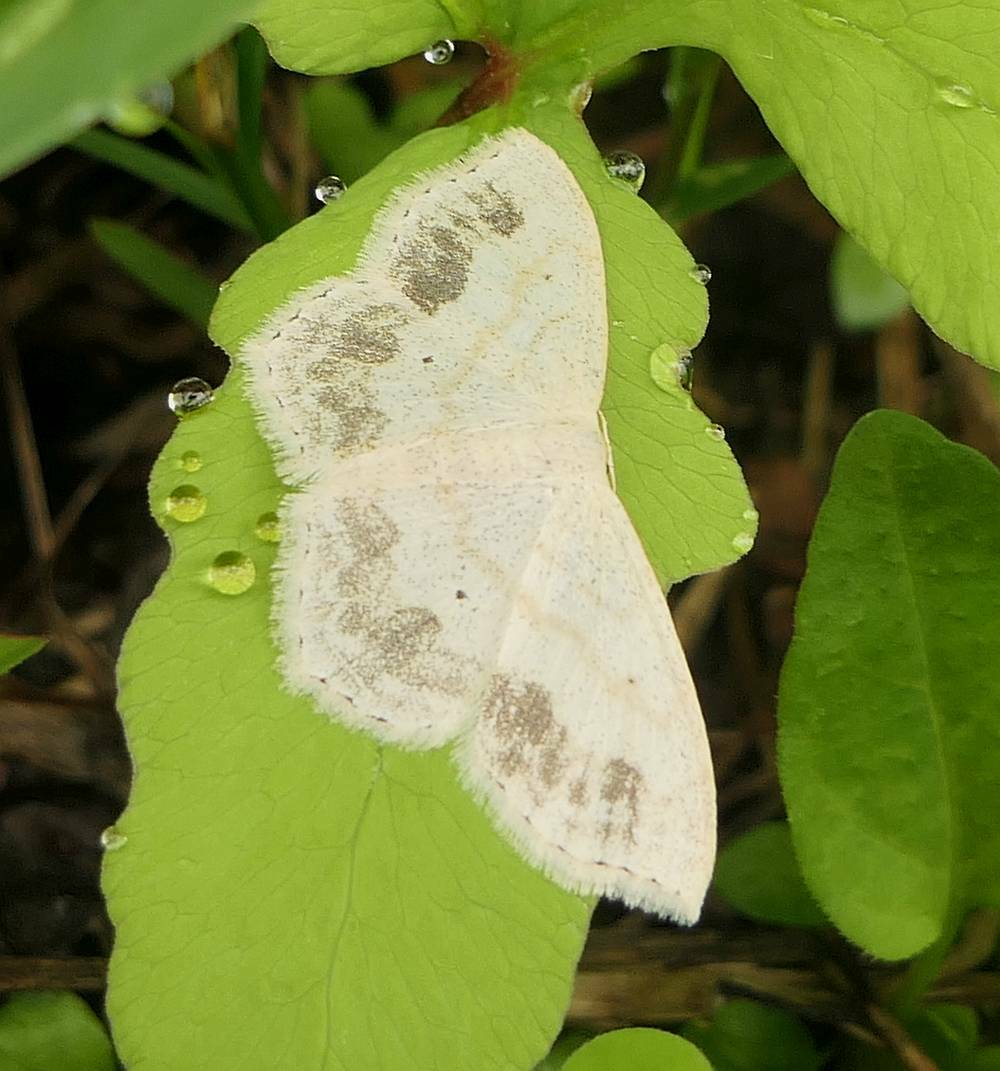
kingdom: Animalia
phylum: Arthropoda
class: Insecta
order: Lepidoptera
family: Geometridae
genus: Scopula
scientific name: Scopula limboundata
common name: Large lace border
